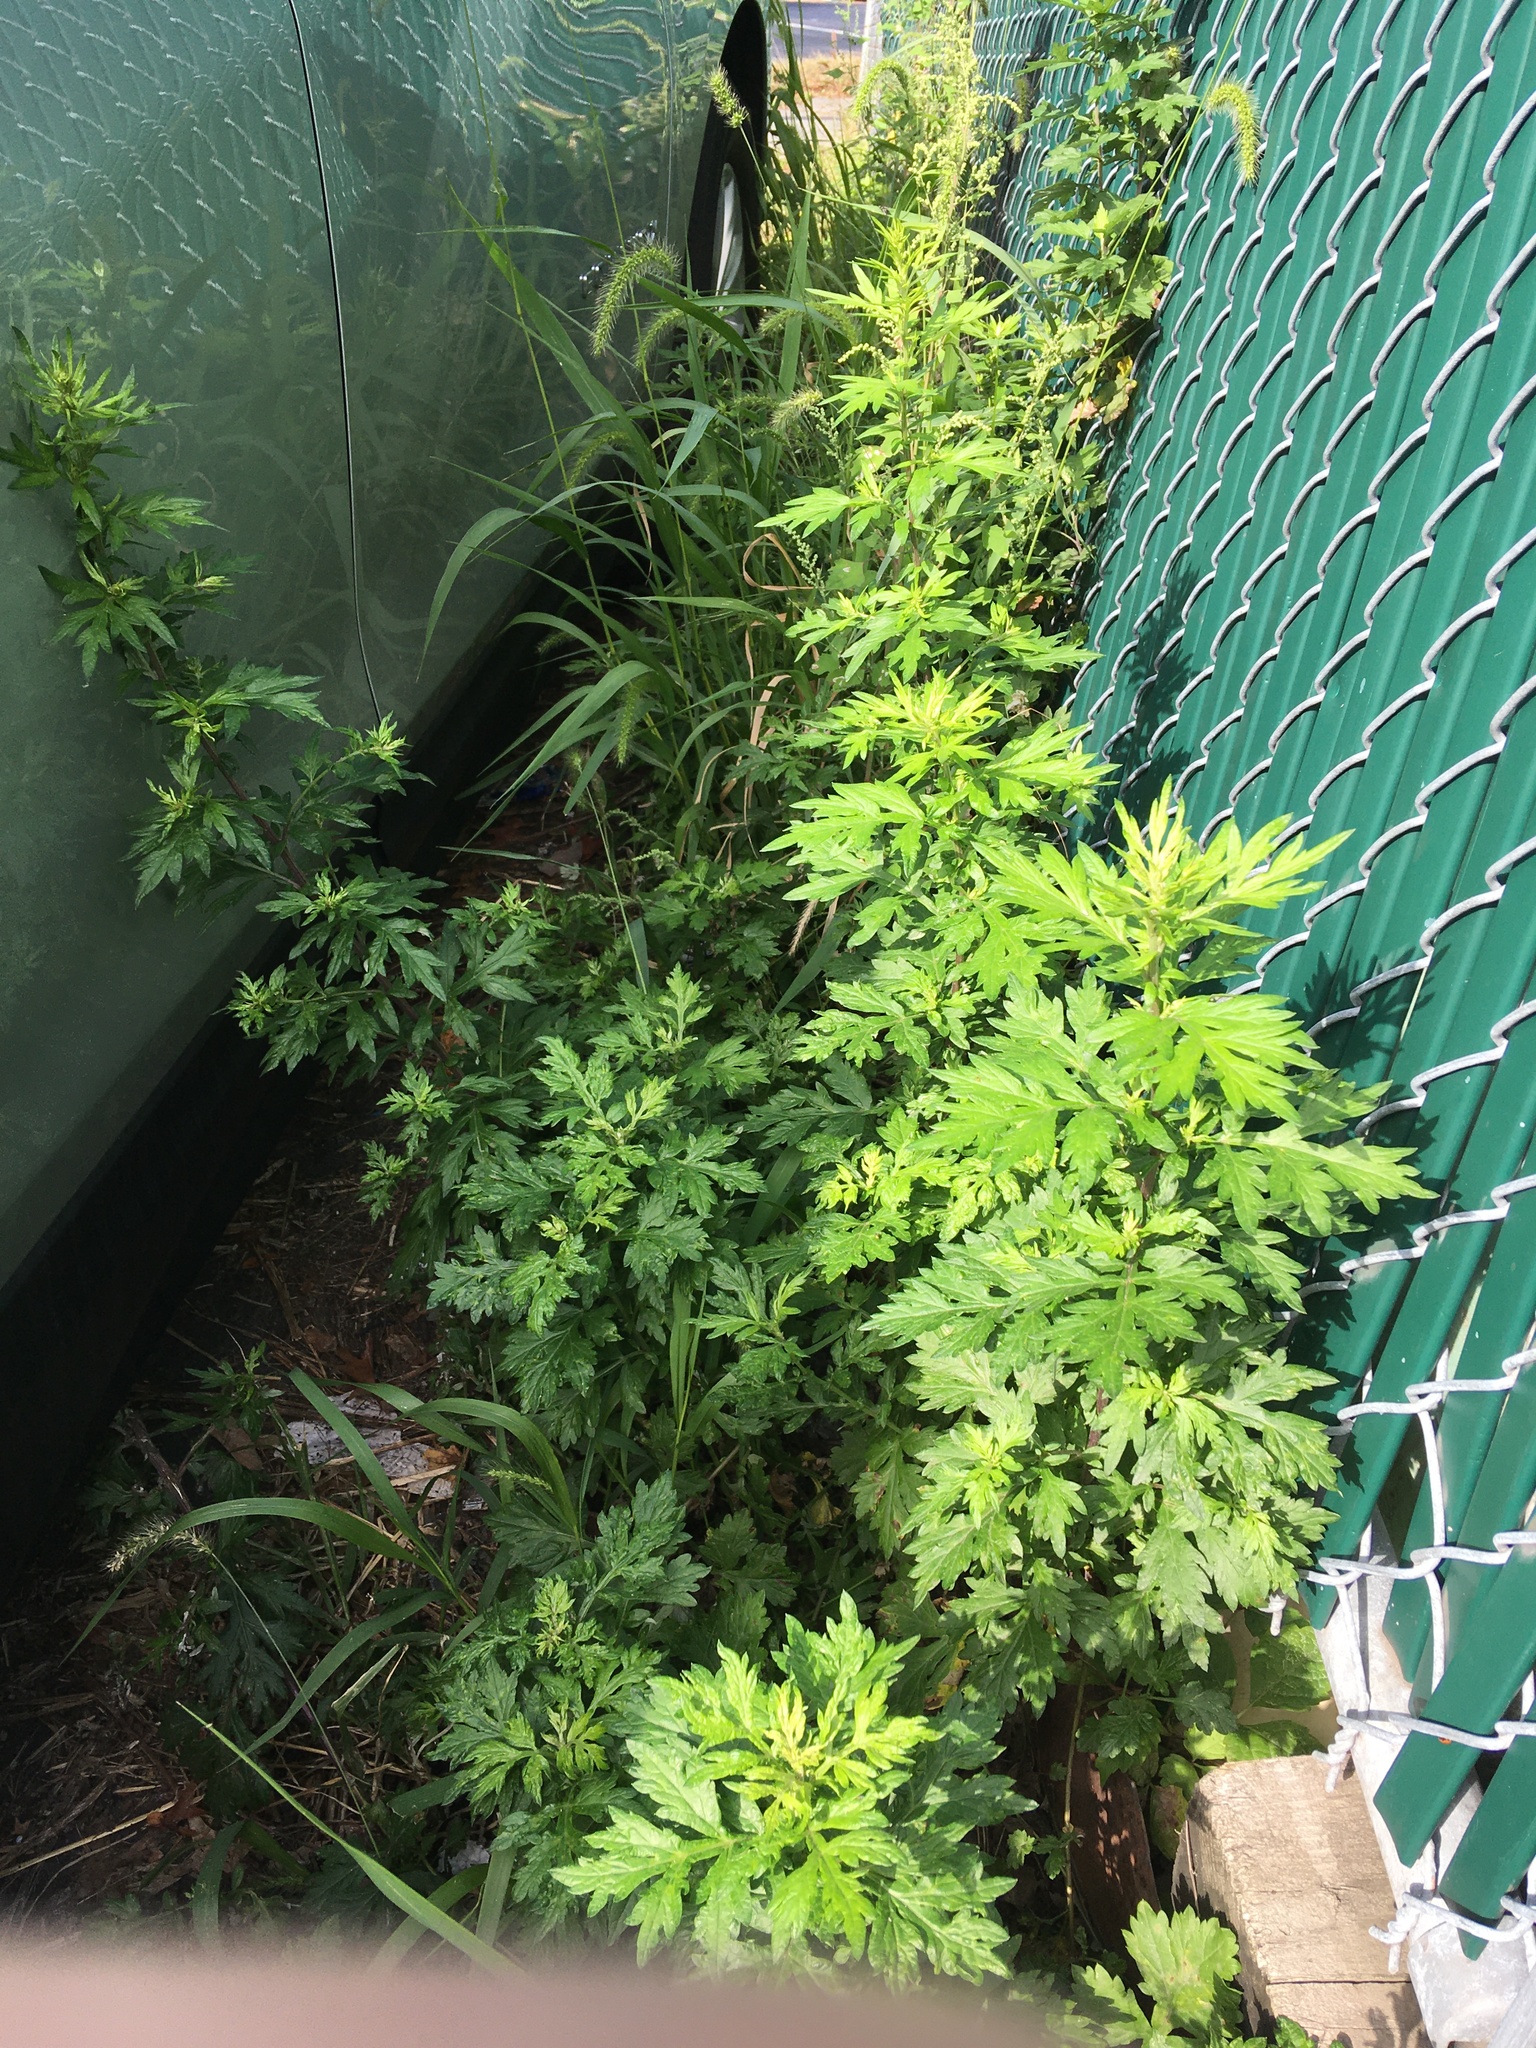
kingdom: Plantae
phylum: Tracheophyta
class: Magnoliopsida
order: Asterales
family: Asteraceae
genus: Artemisia
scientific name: Artemisia vulgaris
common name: Mugwort
